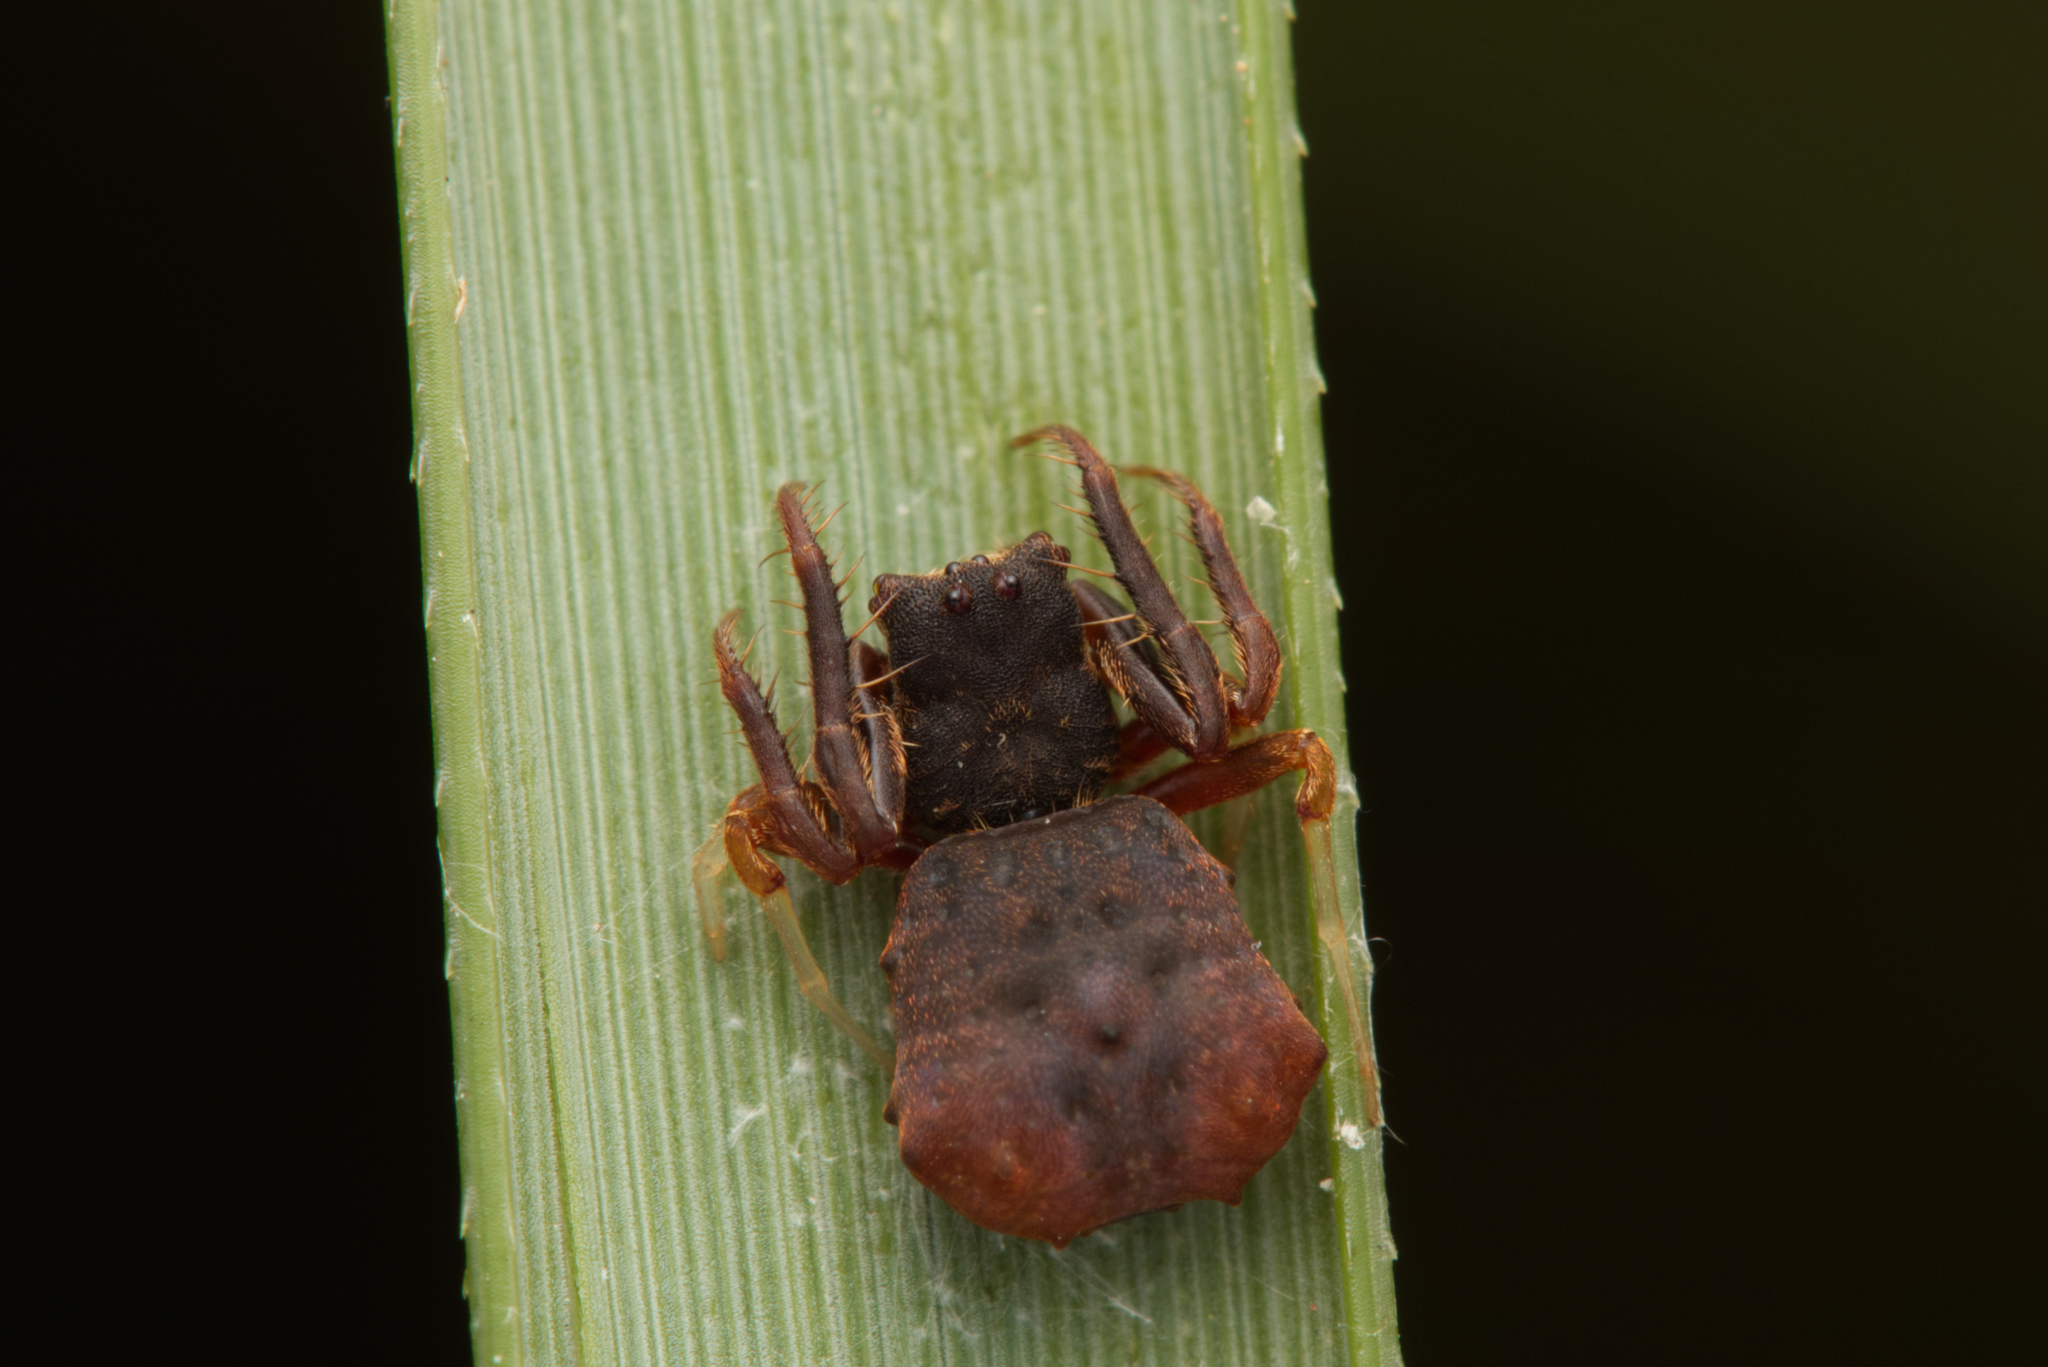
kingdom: Animalia
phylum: Arthropoda
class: Arachnida
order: Araneae
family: Arkyidae
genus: Arkys
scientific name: Arkys dilatatus
